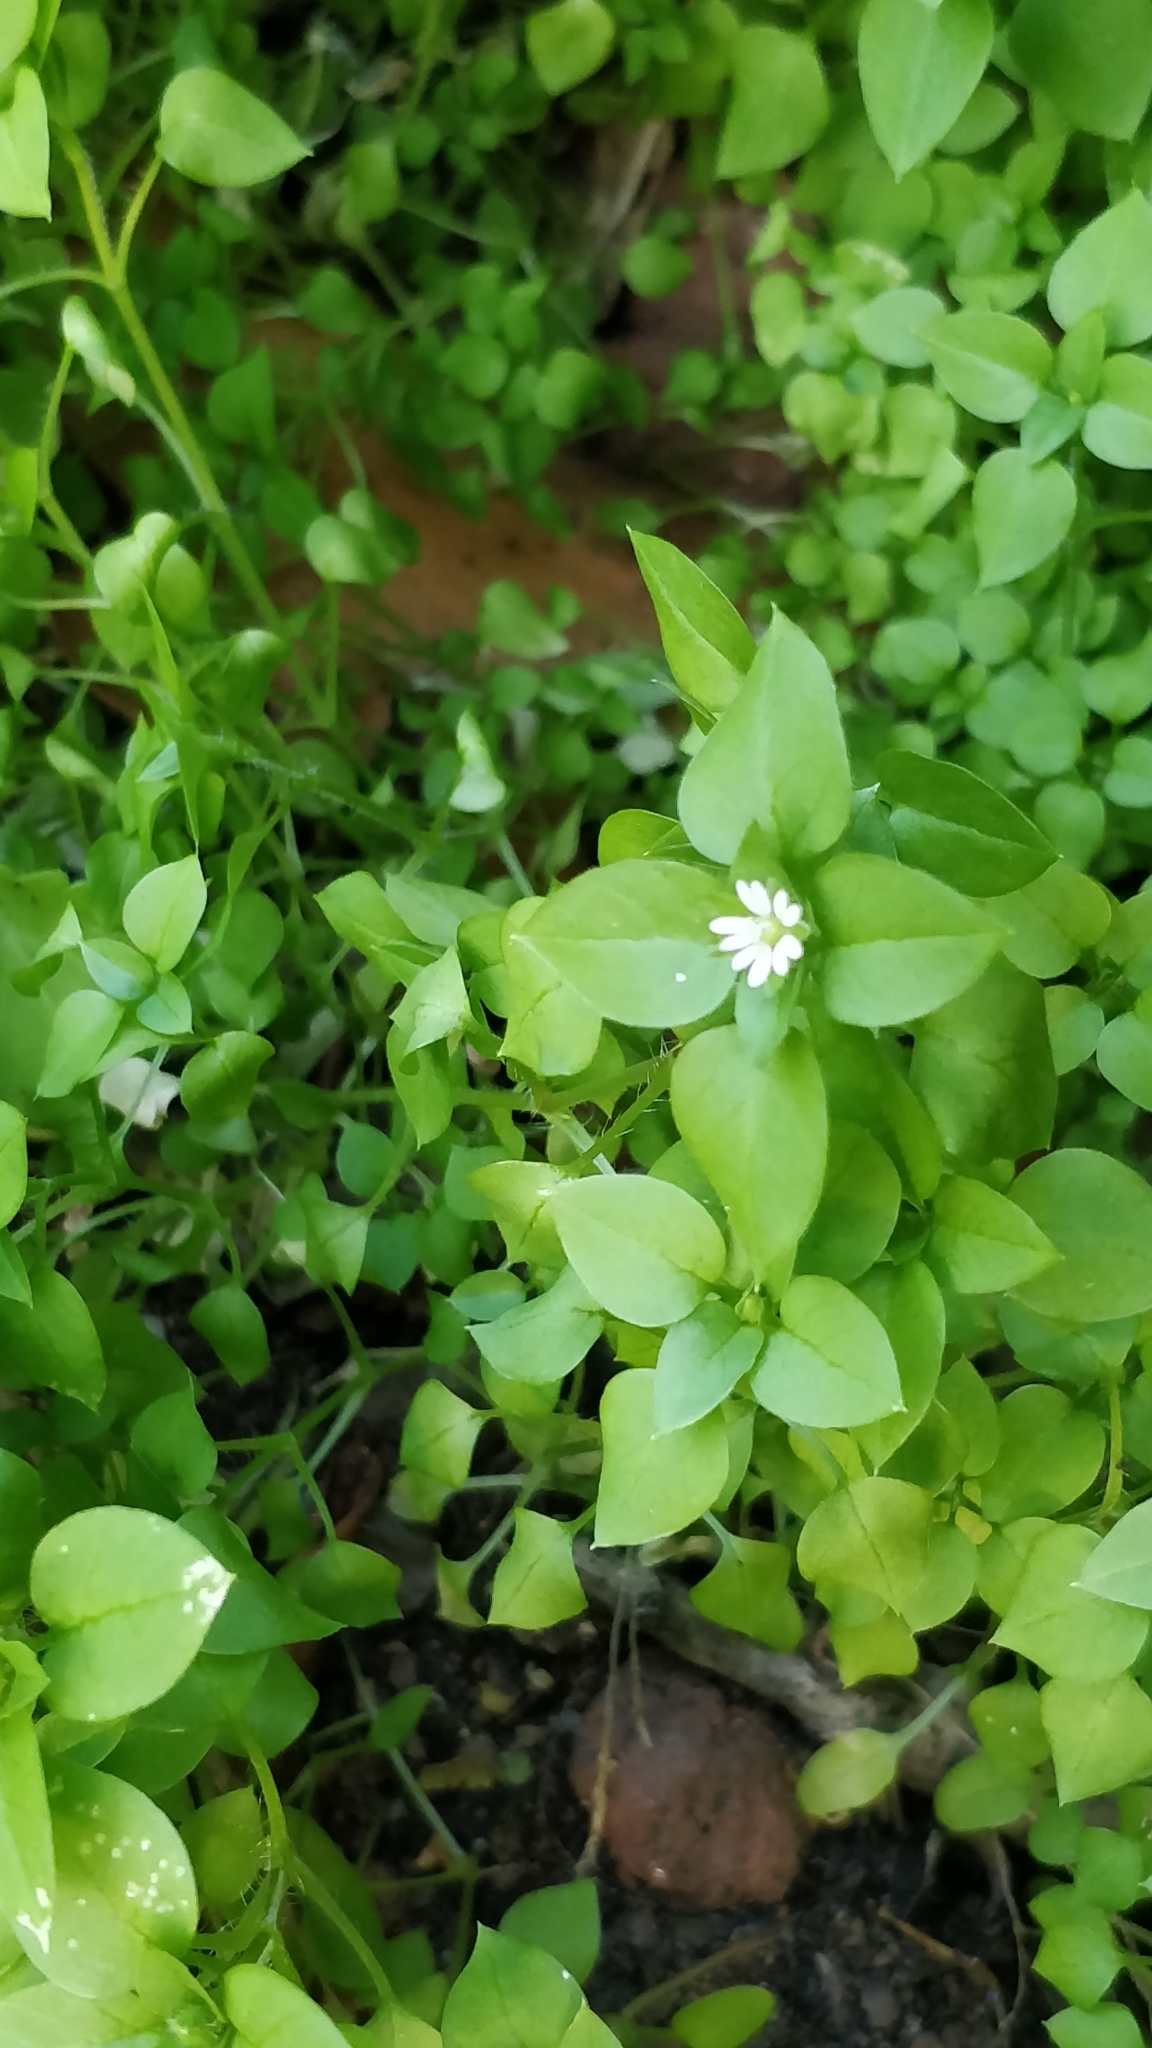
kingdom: Plantae
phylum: Tracheophyta
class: Magnoliopsida
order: Caryophyllales
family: Caryophyllaceae
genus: Stellaria
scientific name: Stellaria media
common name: Common chickweed
